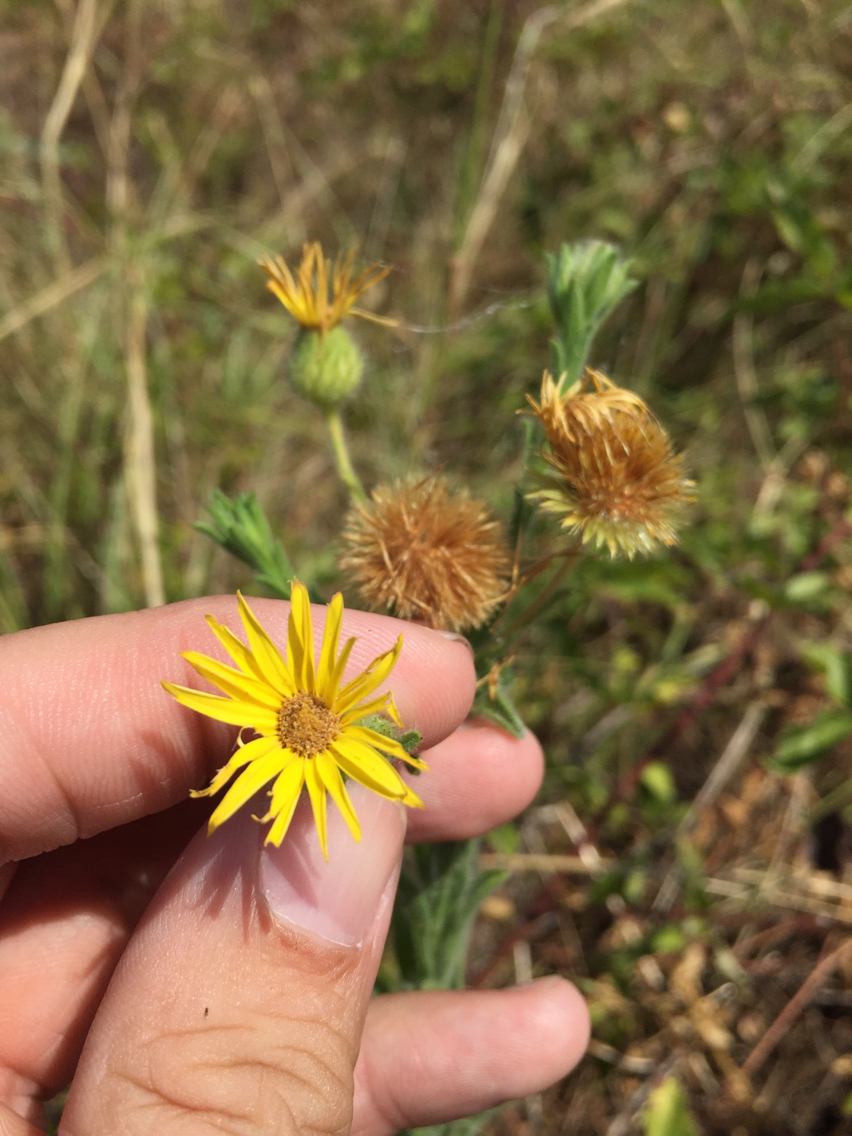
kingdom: Plantae
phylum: Tracheophyta
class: Magnoliopsida
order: Asterales
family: Asteraceae
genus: Bradburia
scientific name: Bradburia pilosa
